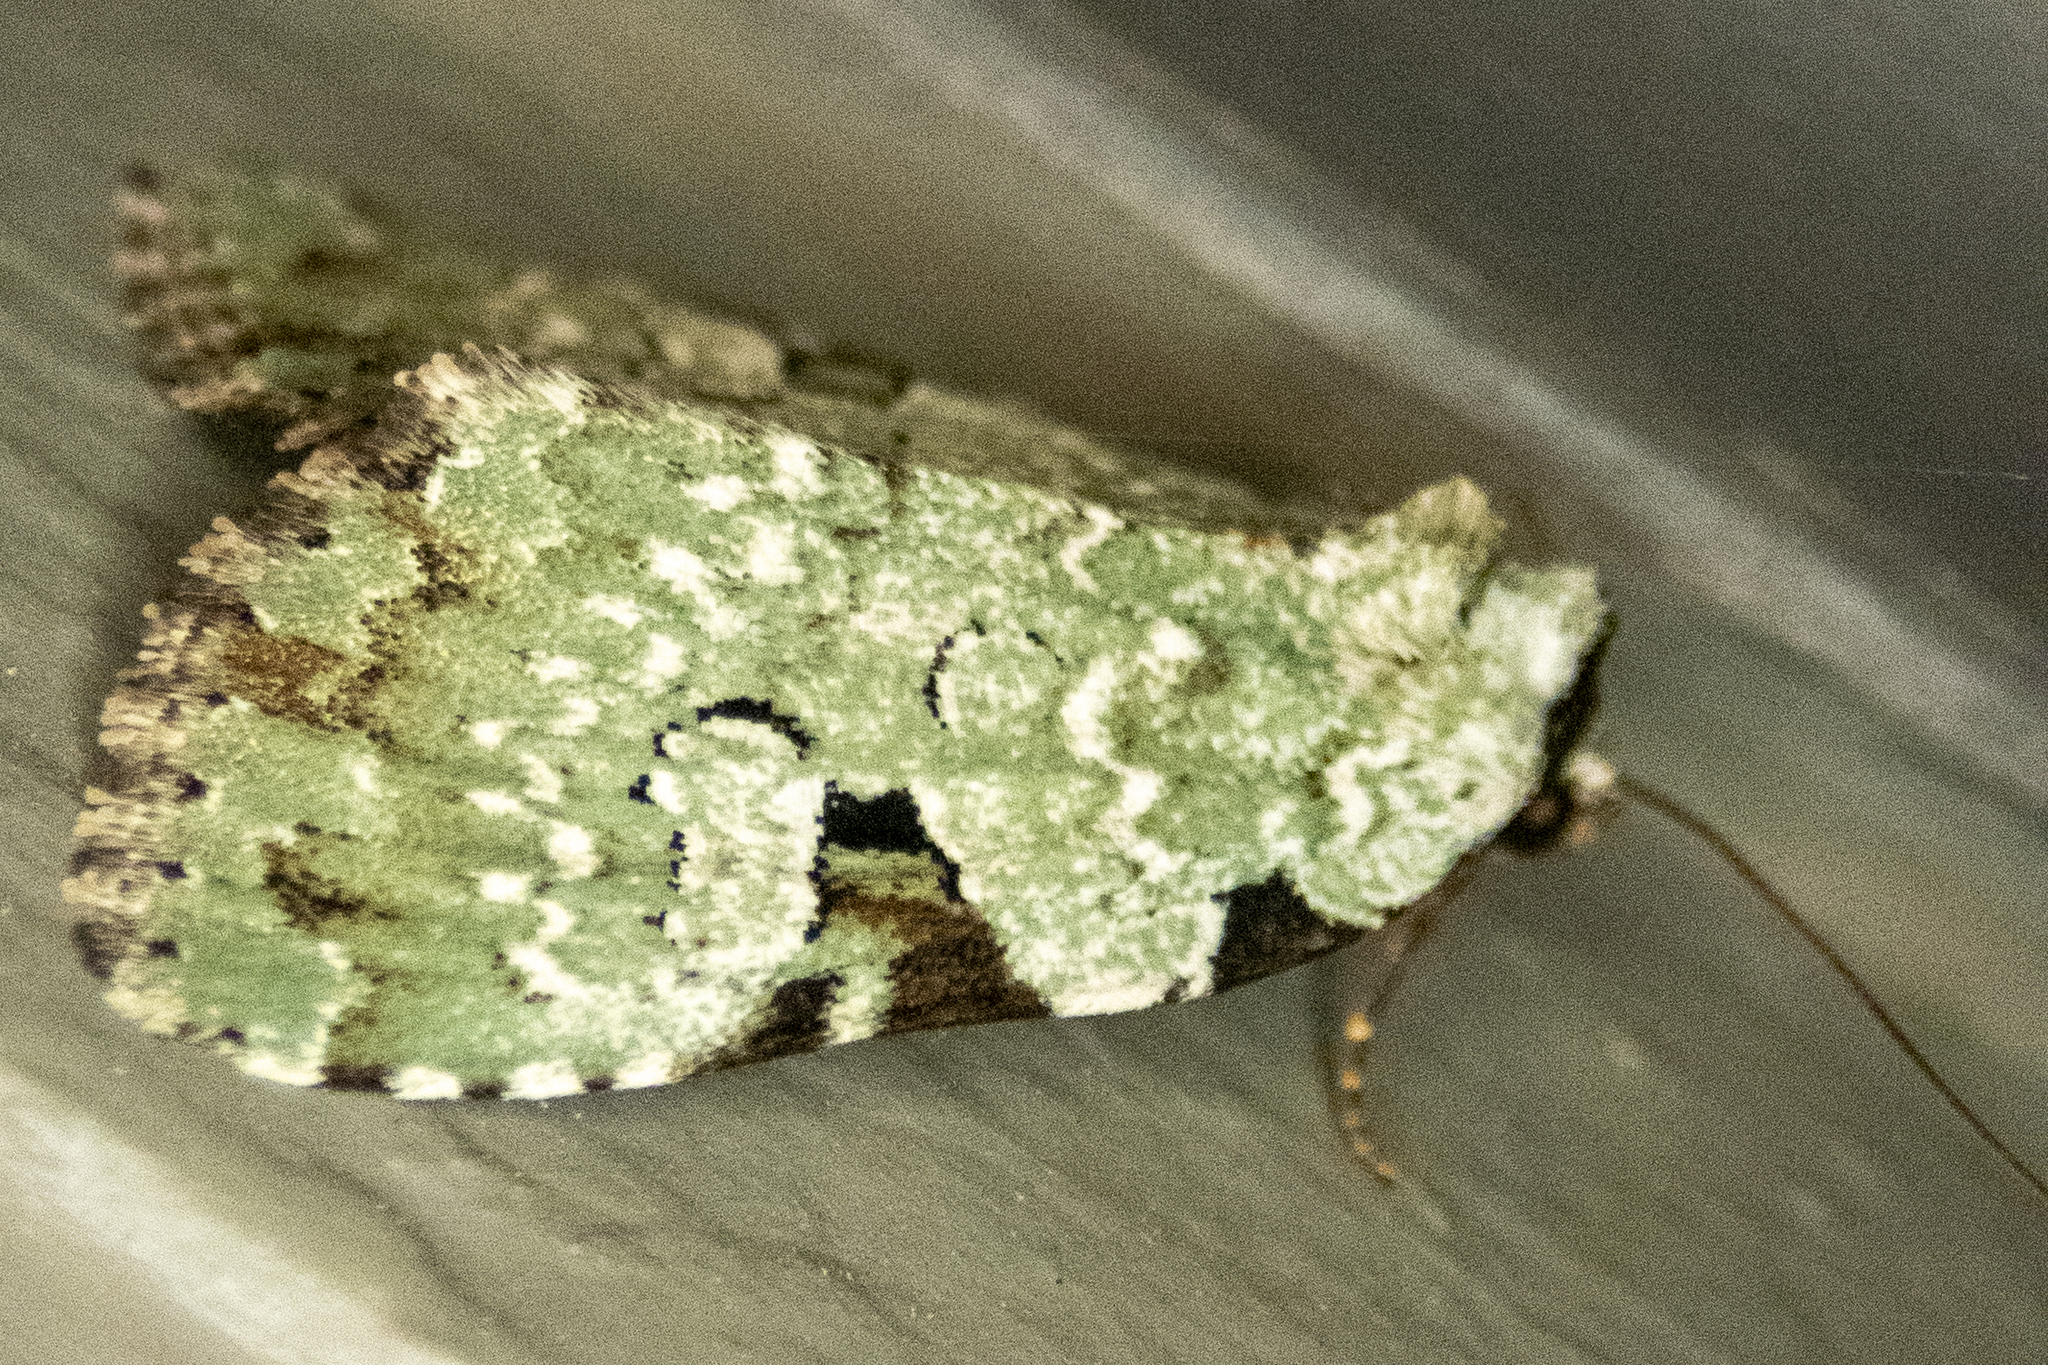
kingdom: Animalia
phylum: Arthropoda
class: Insecta
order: Lepidoptera
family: Noctuidae
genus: Leuconycta
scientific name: Leuconycta diphteroides
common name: Green leuconycta moth
